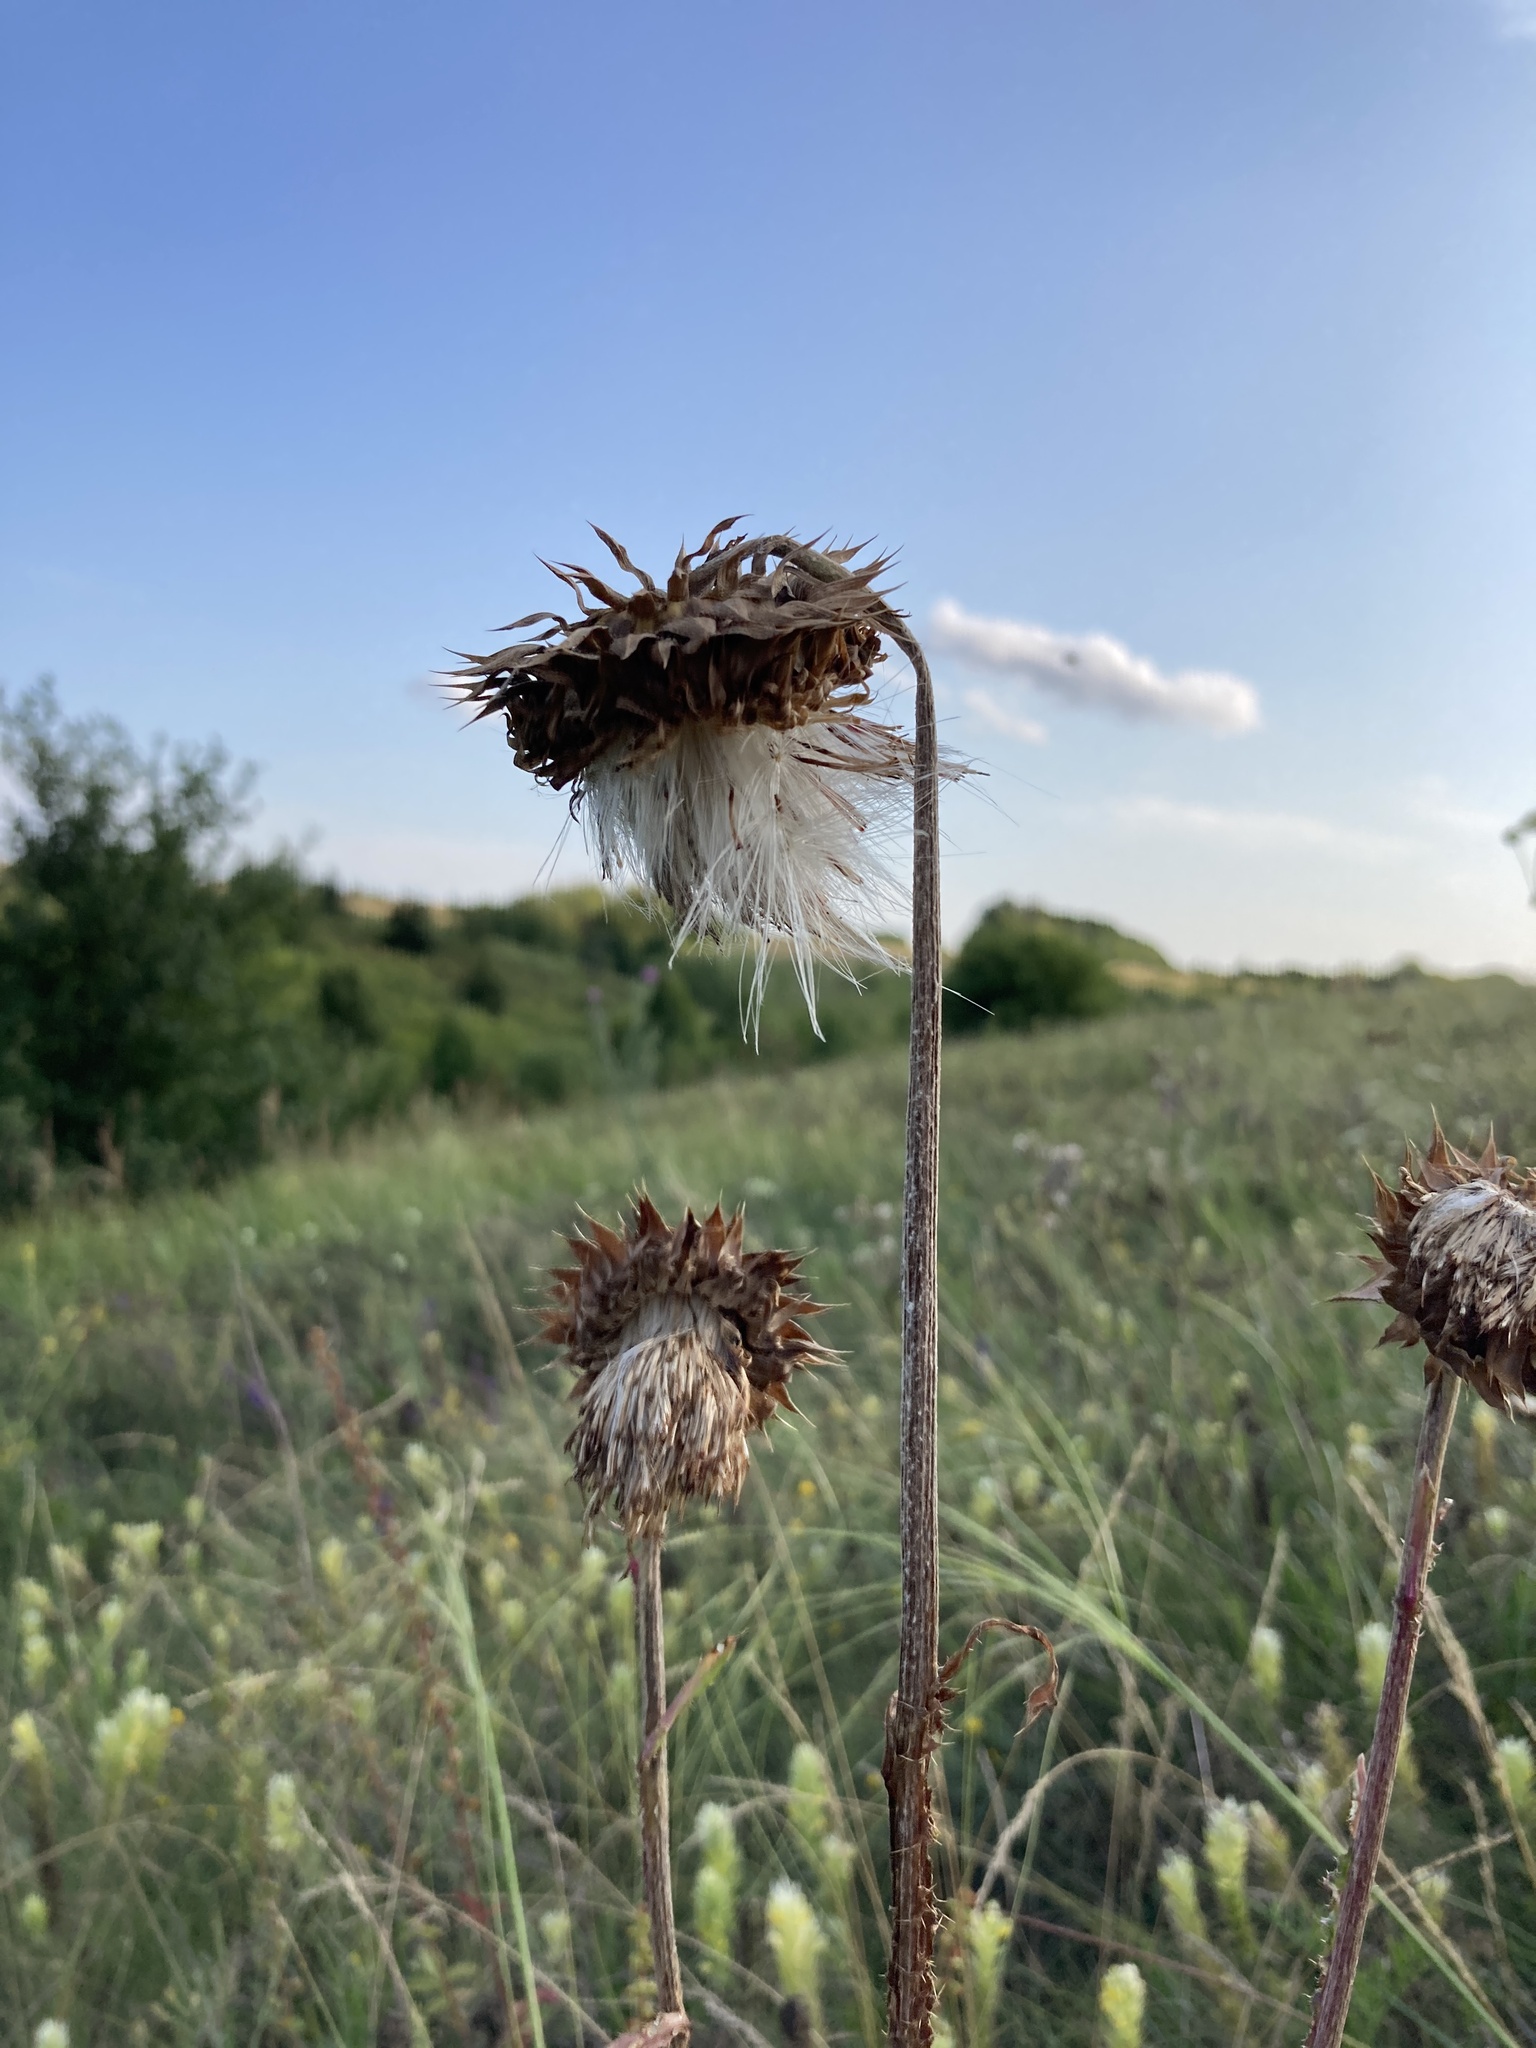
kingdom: Plantae
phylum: Tracheophyta
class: Magnoliopsida
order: Asterales
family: Asteraceae
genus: Carduus
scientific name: Carduus nutans
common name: Musk thistle
